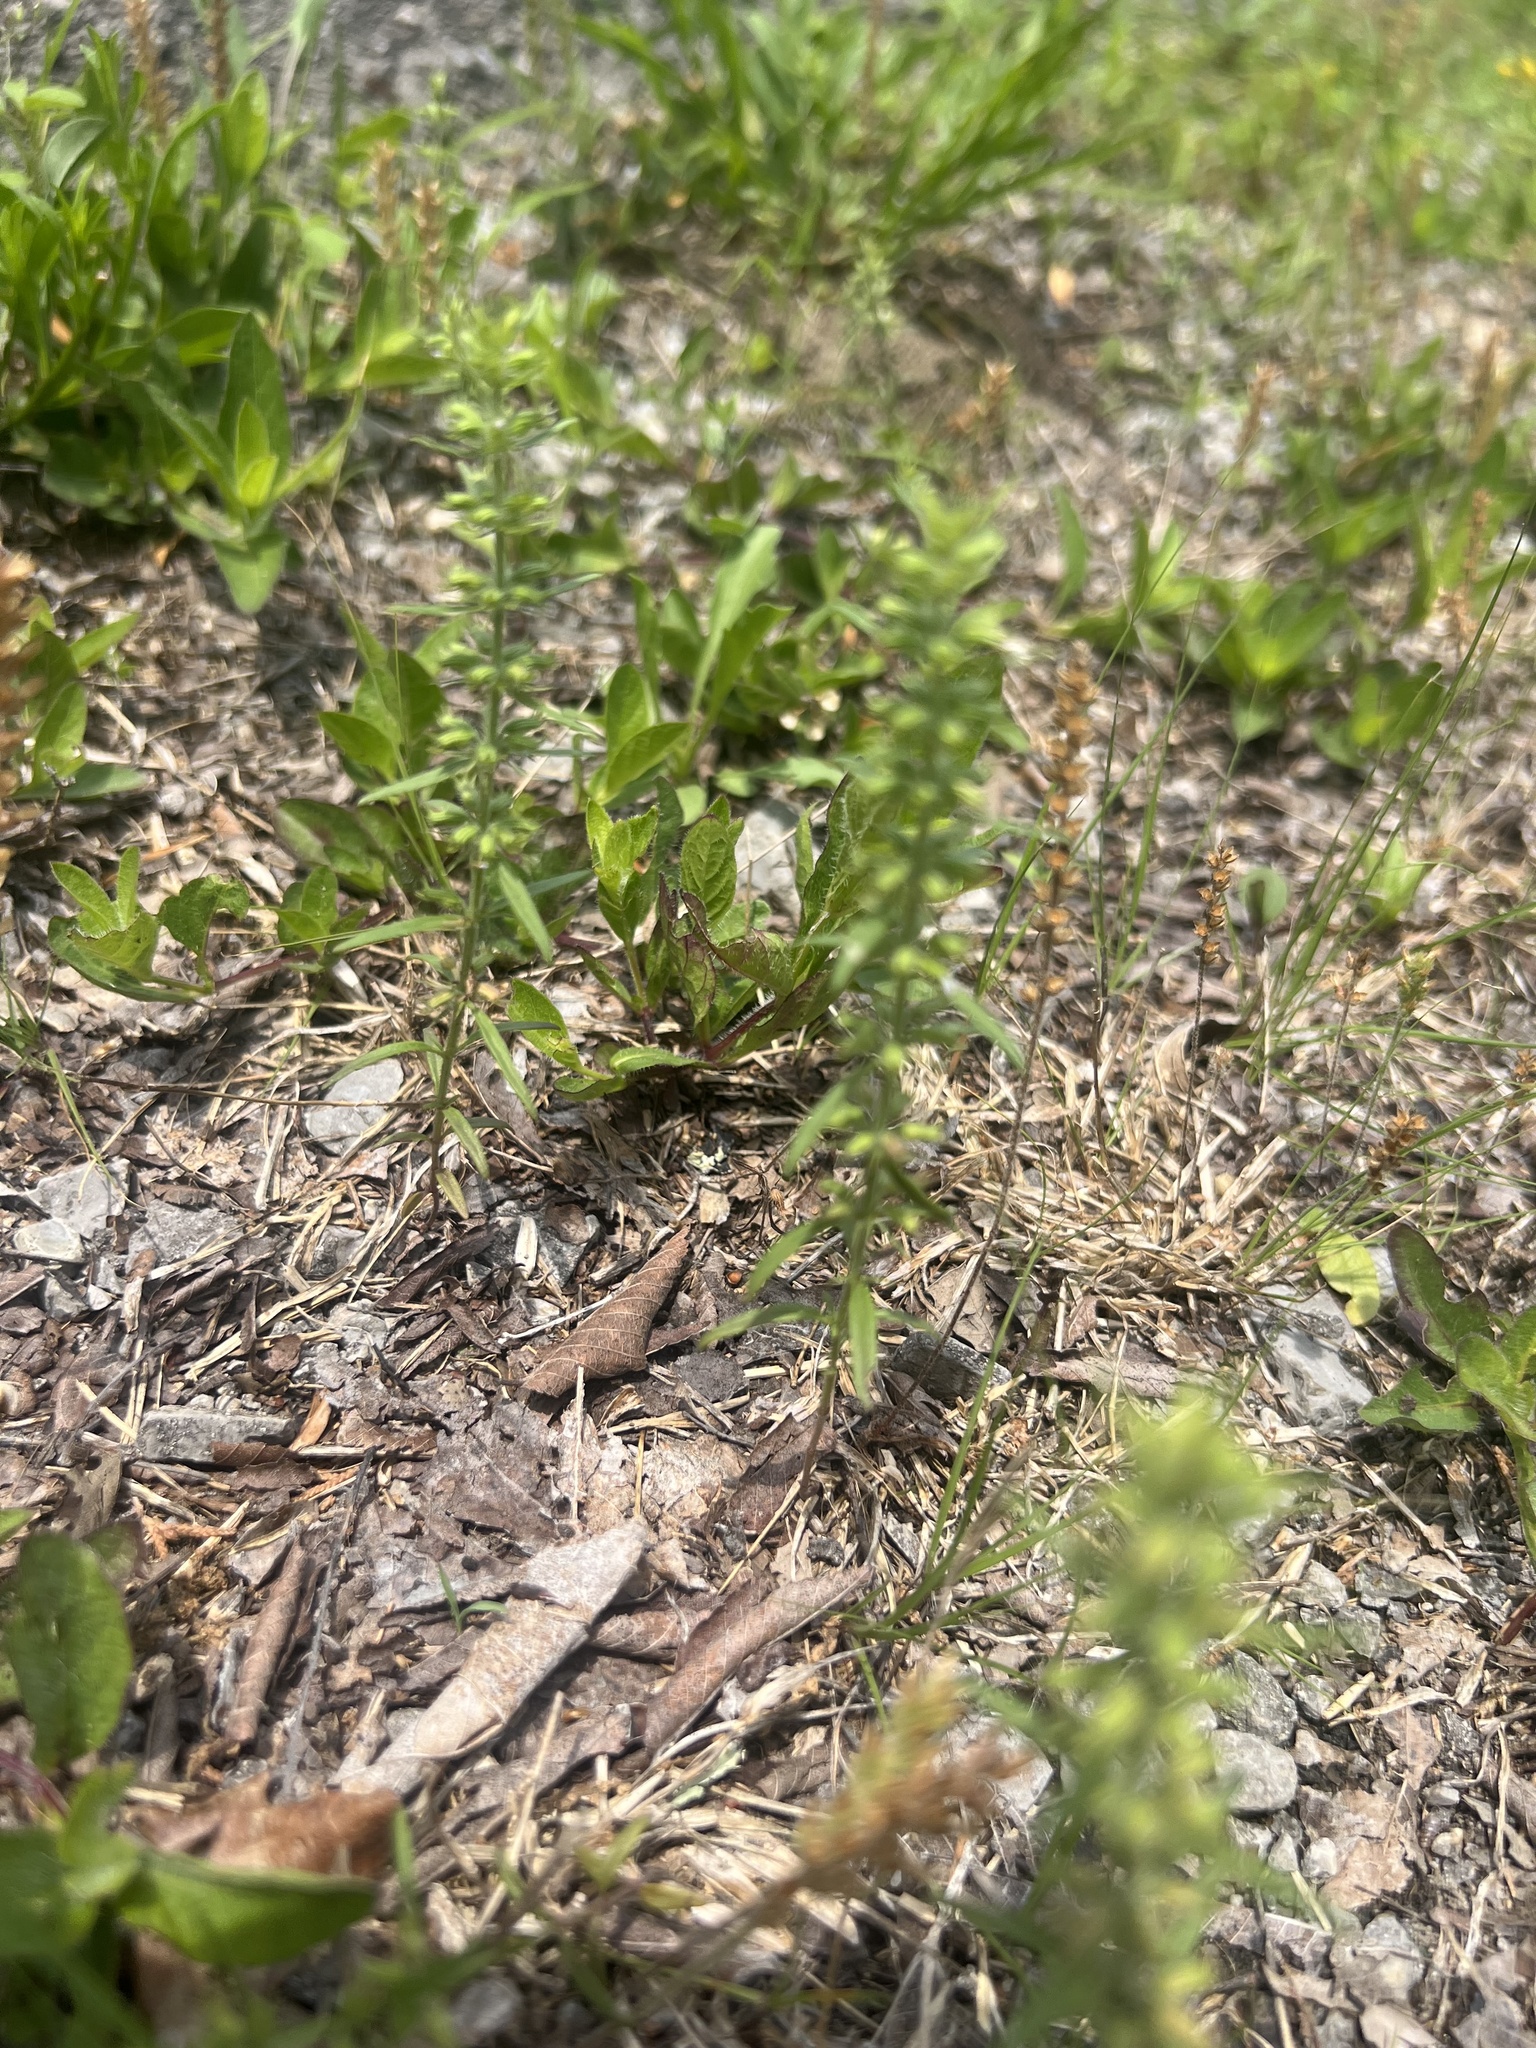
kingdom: Plantae
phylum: Tracheophyta
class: Magnoliopsida
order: Lamiales
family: Lamiaceae
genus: Hedeoma
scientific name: Hedeoma hispida
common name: Mock pennyroyal
